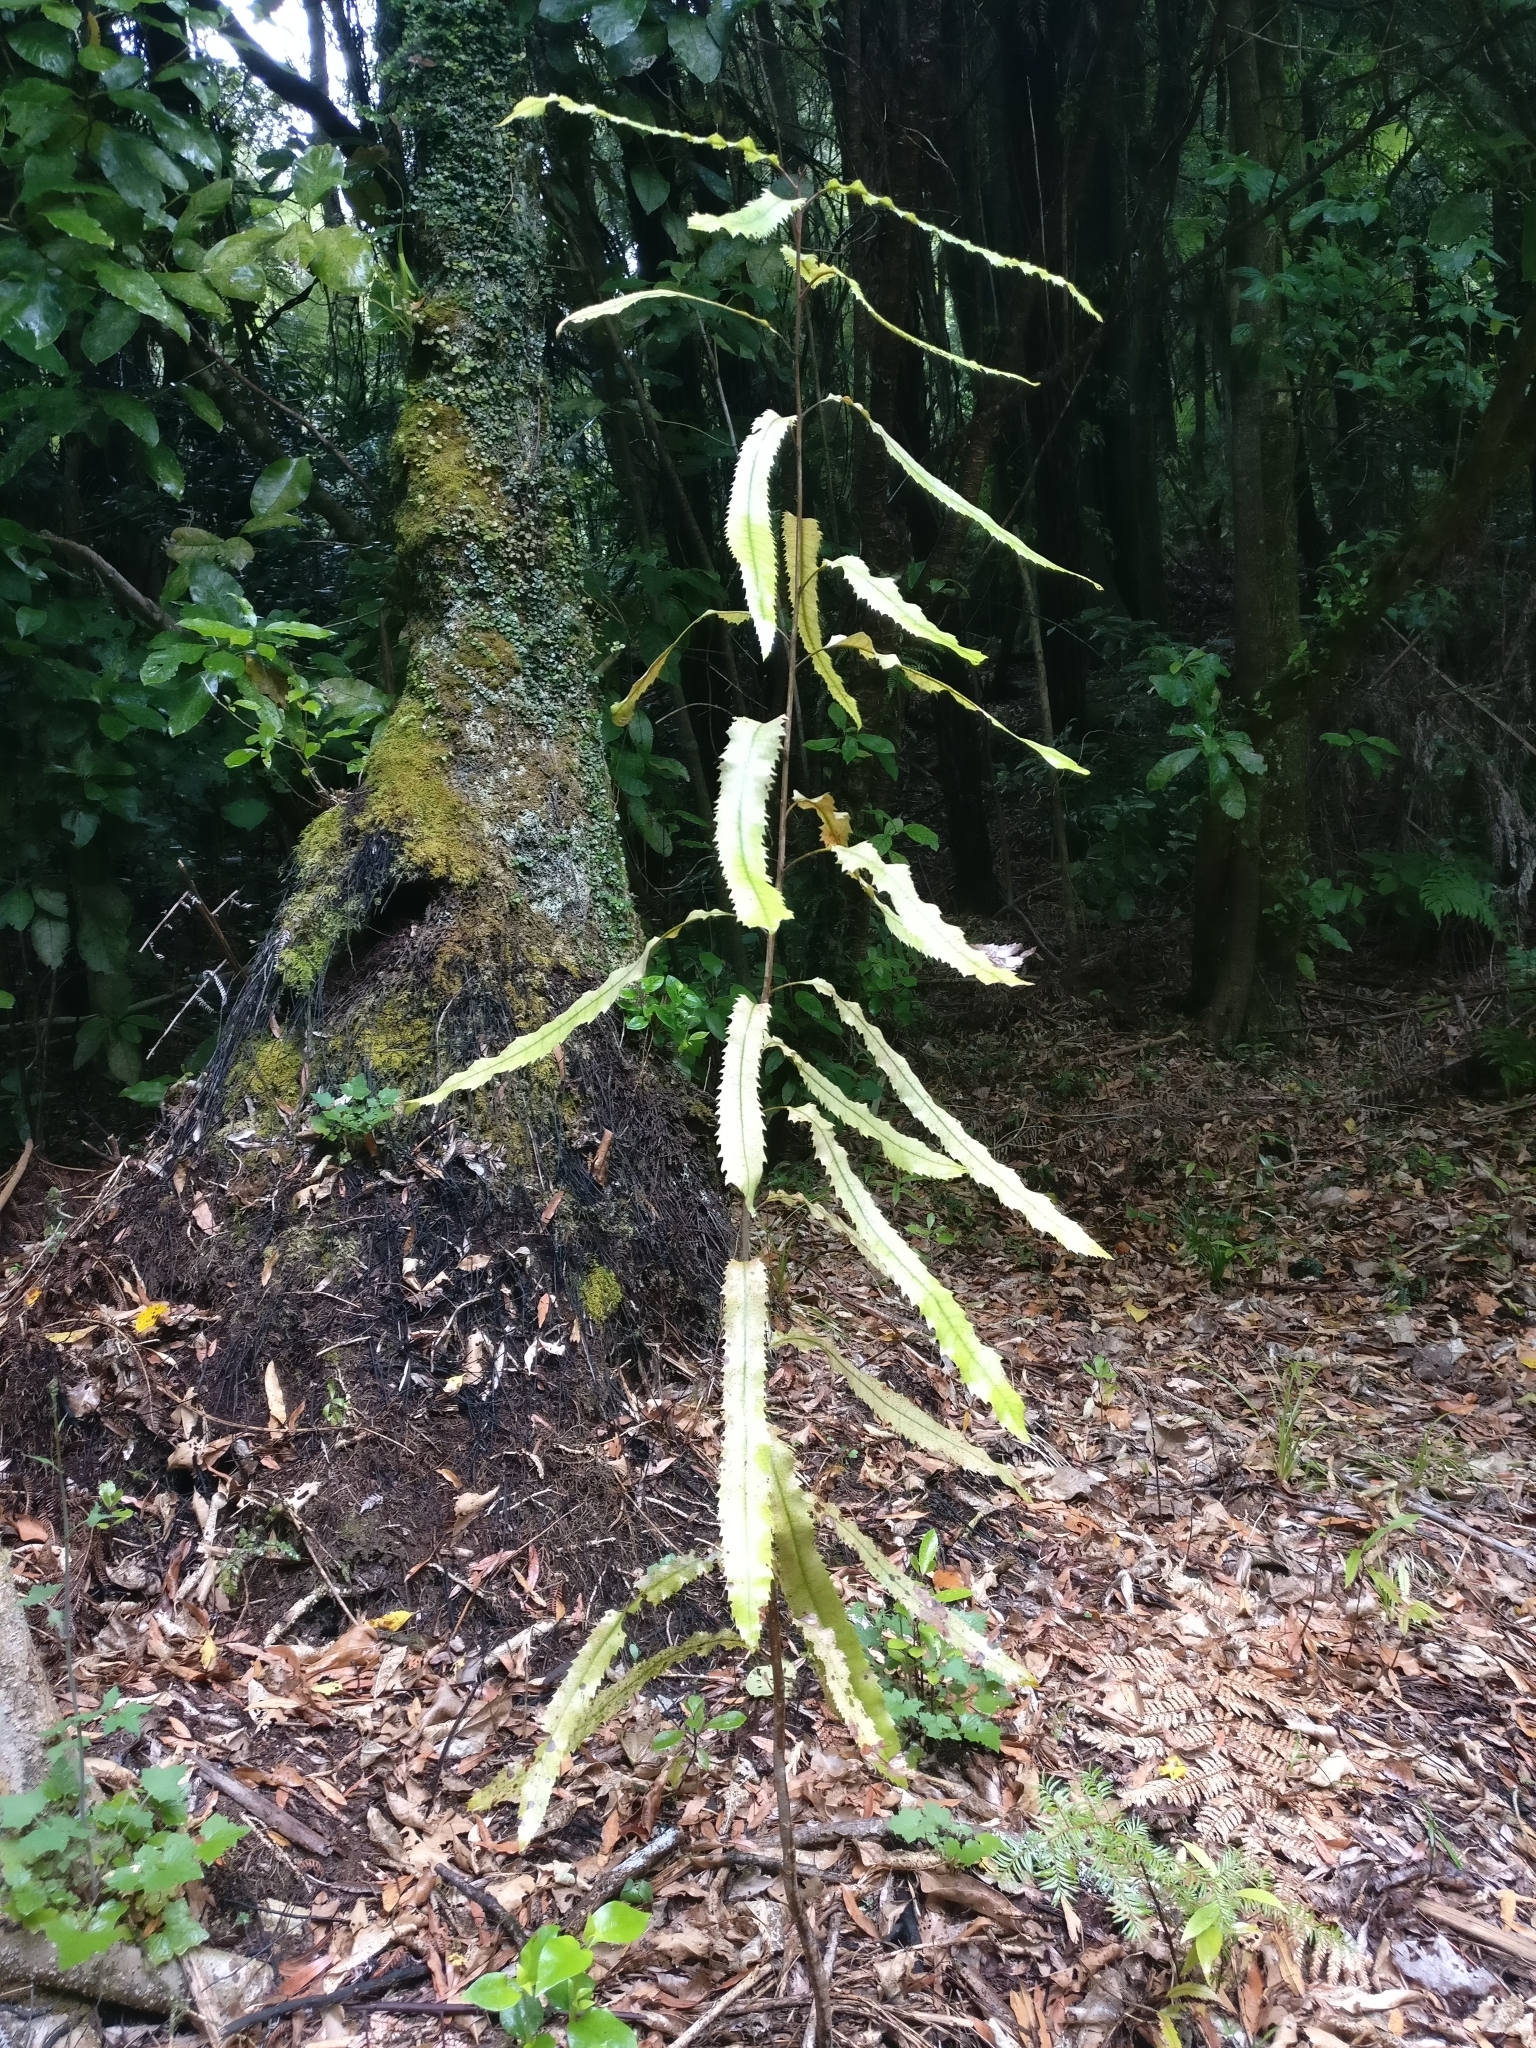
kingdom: Plantae
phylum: Tracheophyta
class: Magnoliopsida
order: Proteales
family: Proteaceae
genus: Knightia
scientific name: Knightia excelsa
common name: New zealand-honeysuckle
